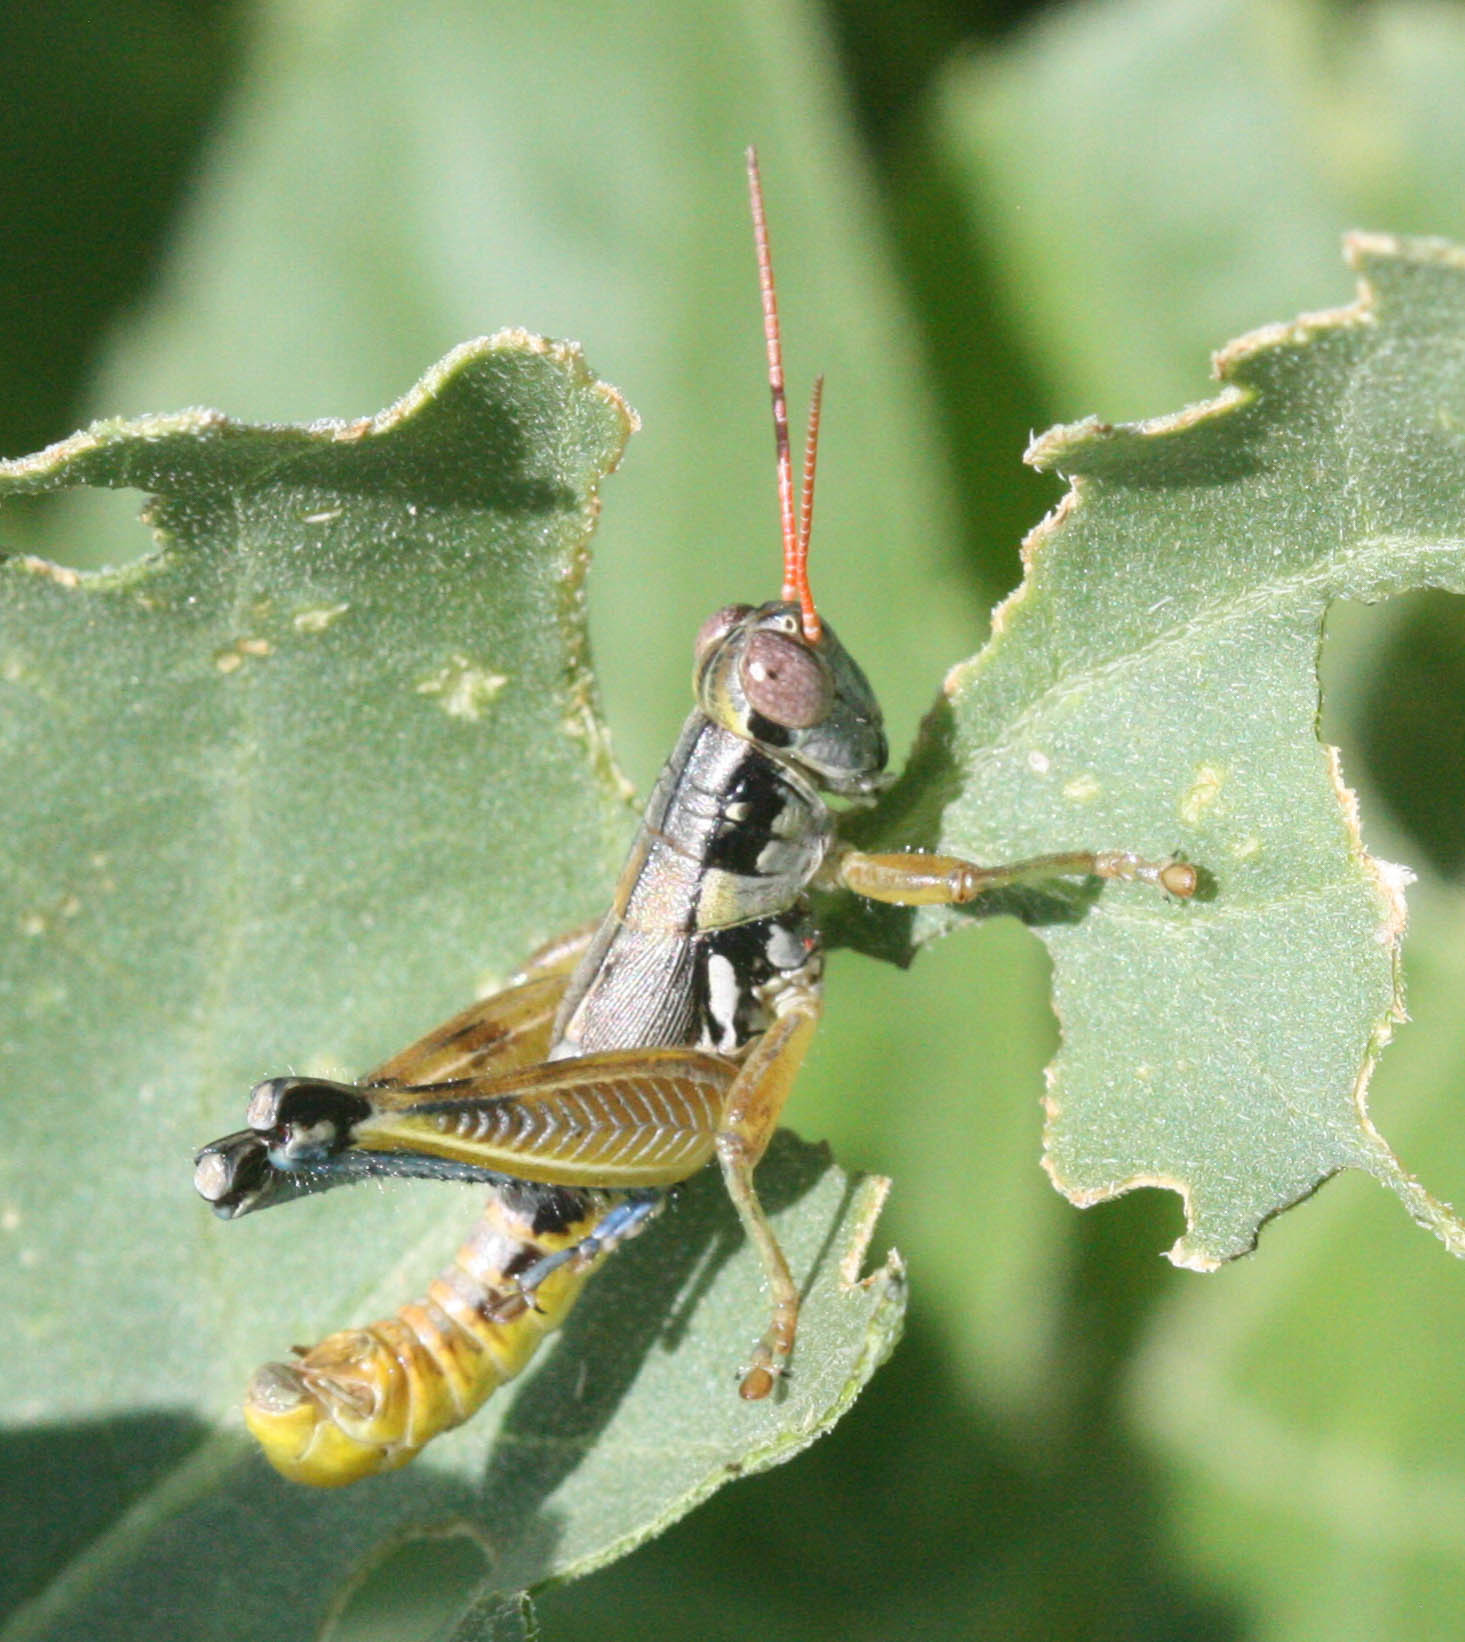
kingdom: Animalia
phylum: Arthropoda
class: Insecta
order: Orthoptera
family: Acrididae
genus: Melanoplus
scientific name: Melanoplus aridus
